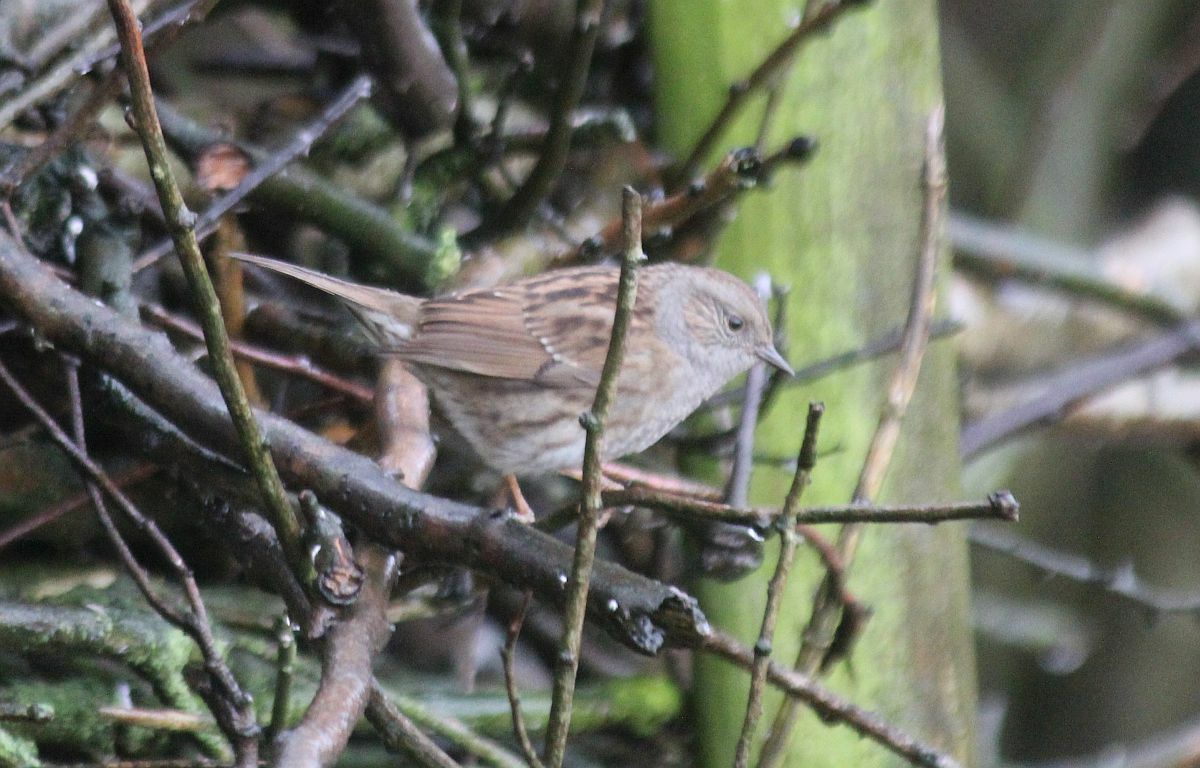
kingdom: Animalia
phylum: Chordata
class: Aves
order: Passeriformes
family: Prunellidae
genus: Prunella
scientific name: Prunella modularis
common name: Dunnock
